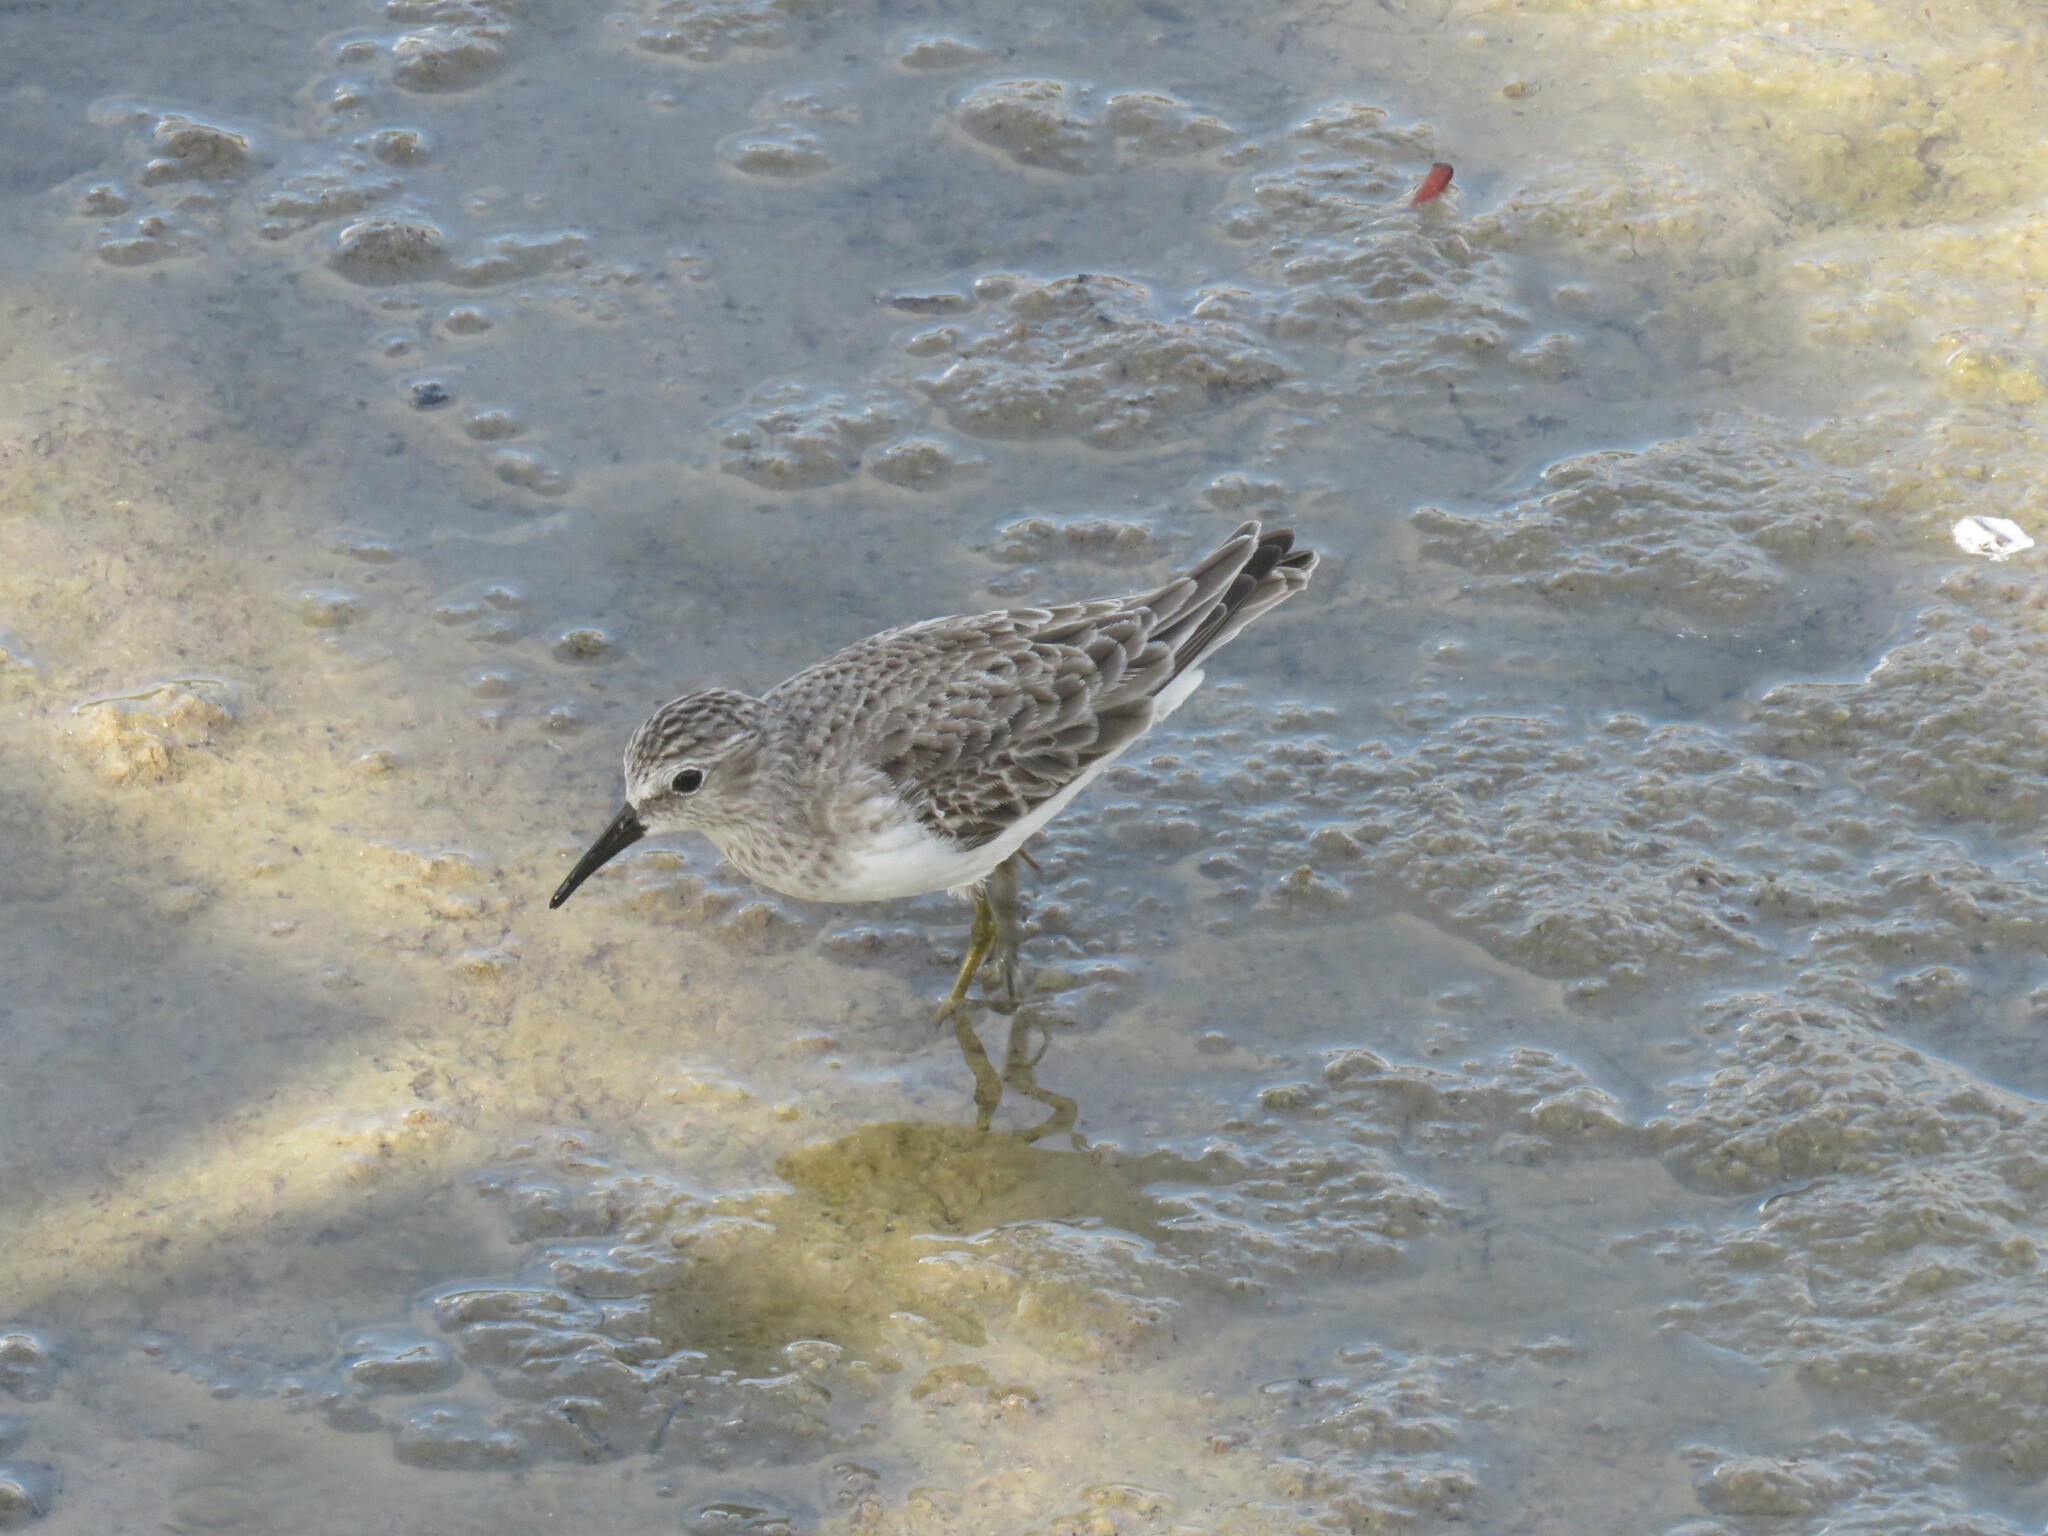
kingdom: Animalia
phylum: Chordata
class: Aves
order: Charadriiformes
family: Scolopacidae
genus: Calidris
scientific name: Calidris minutilla
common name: Least sandpiper
